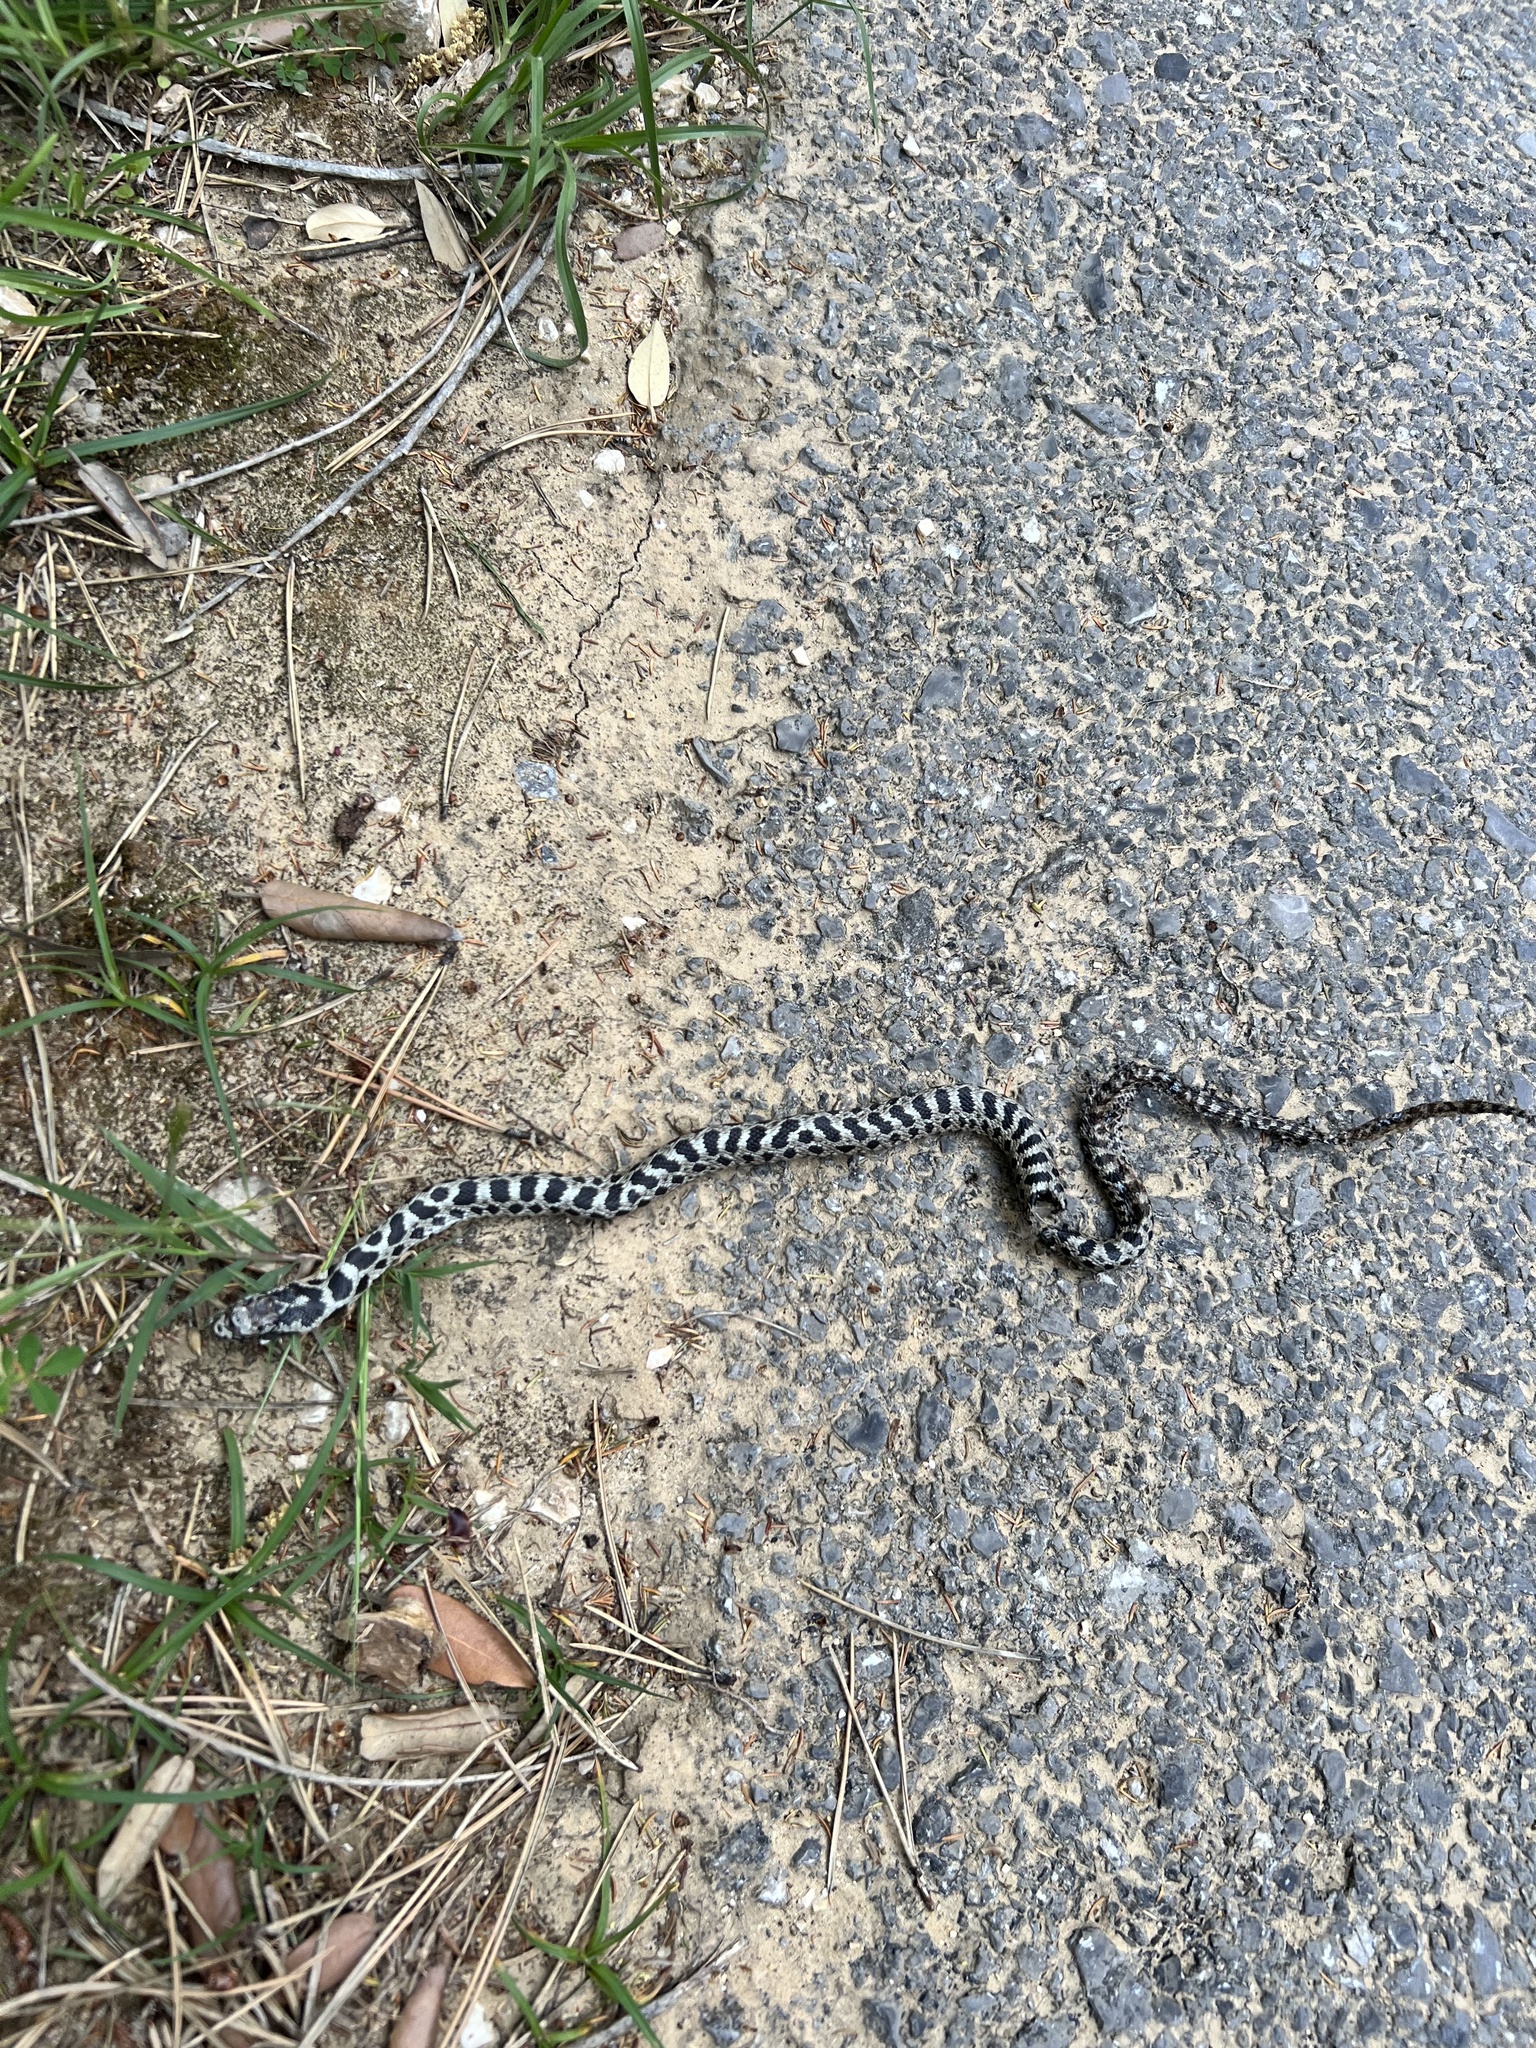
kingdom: Animalia
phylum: Chordata
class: Squamata
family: Colubridae
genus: Elaphe
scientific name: Elaphe quatuorlineata
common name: Four-lined snake
